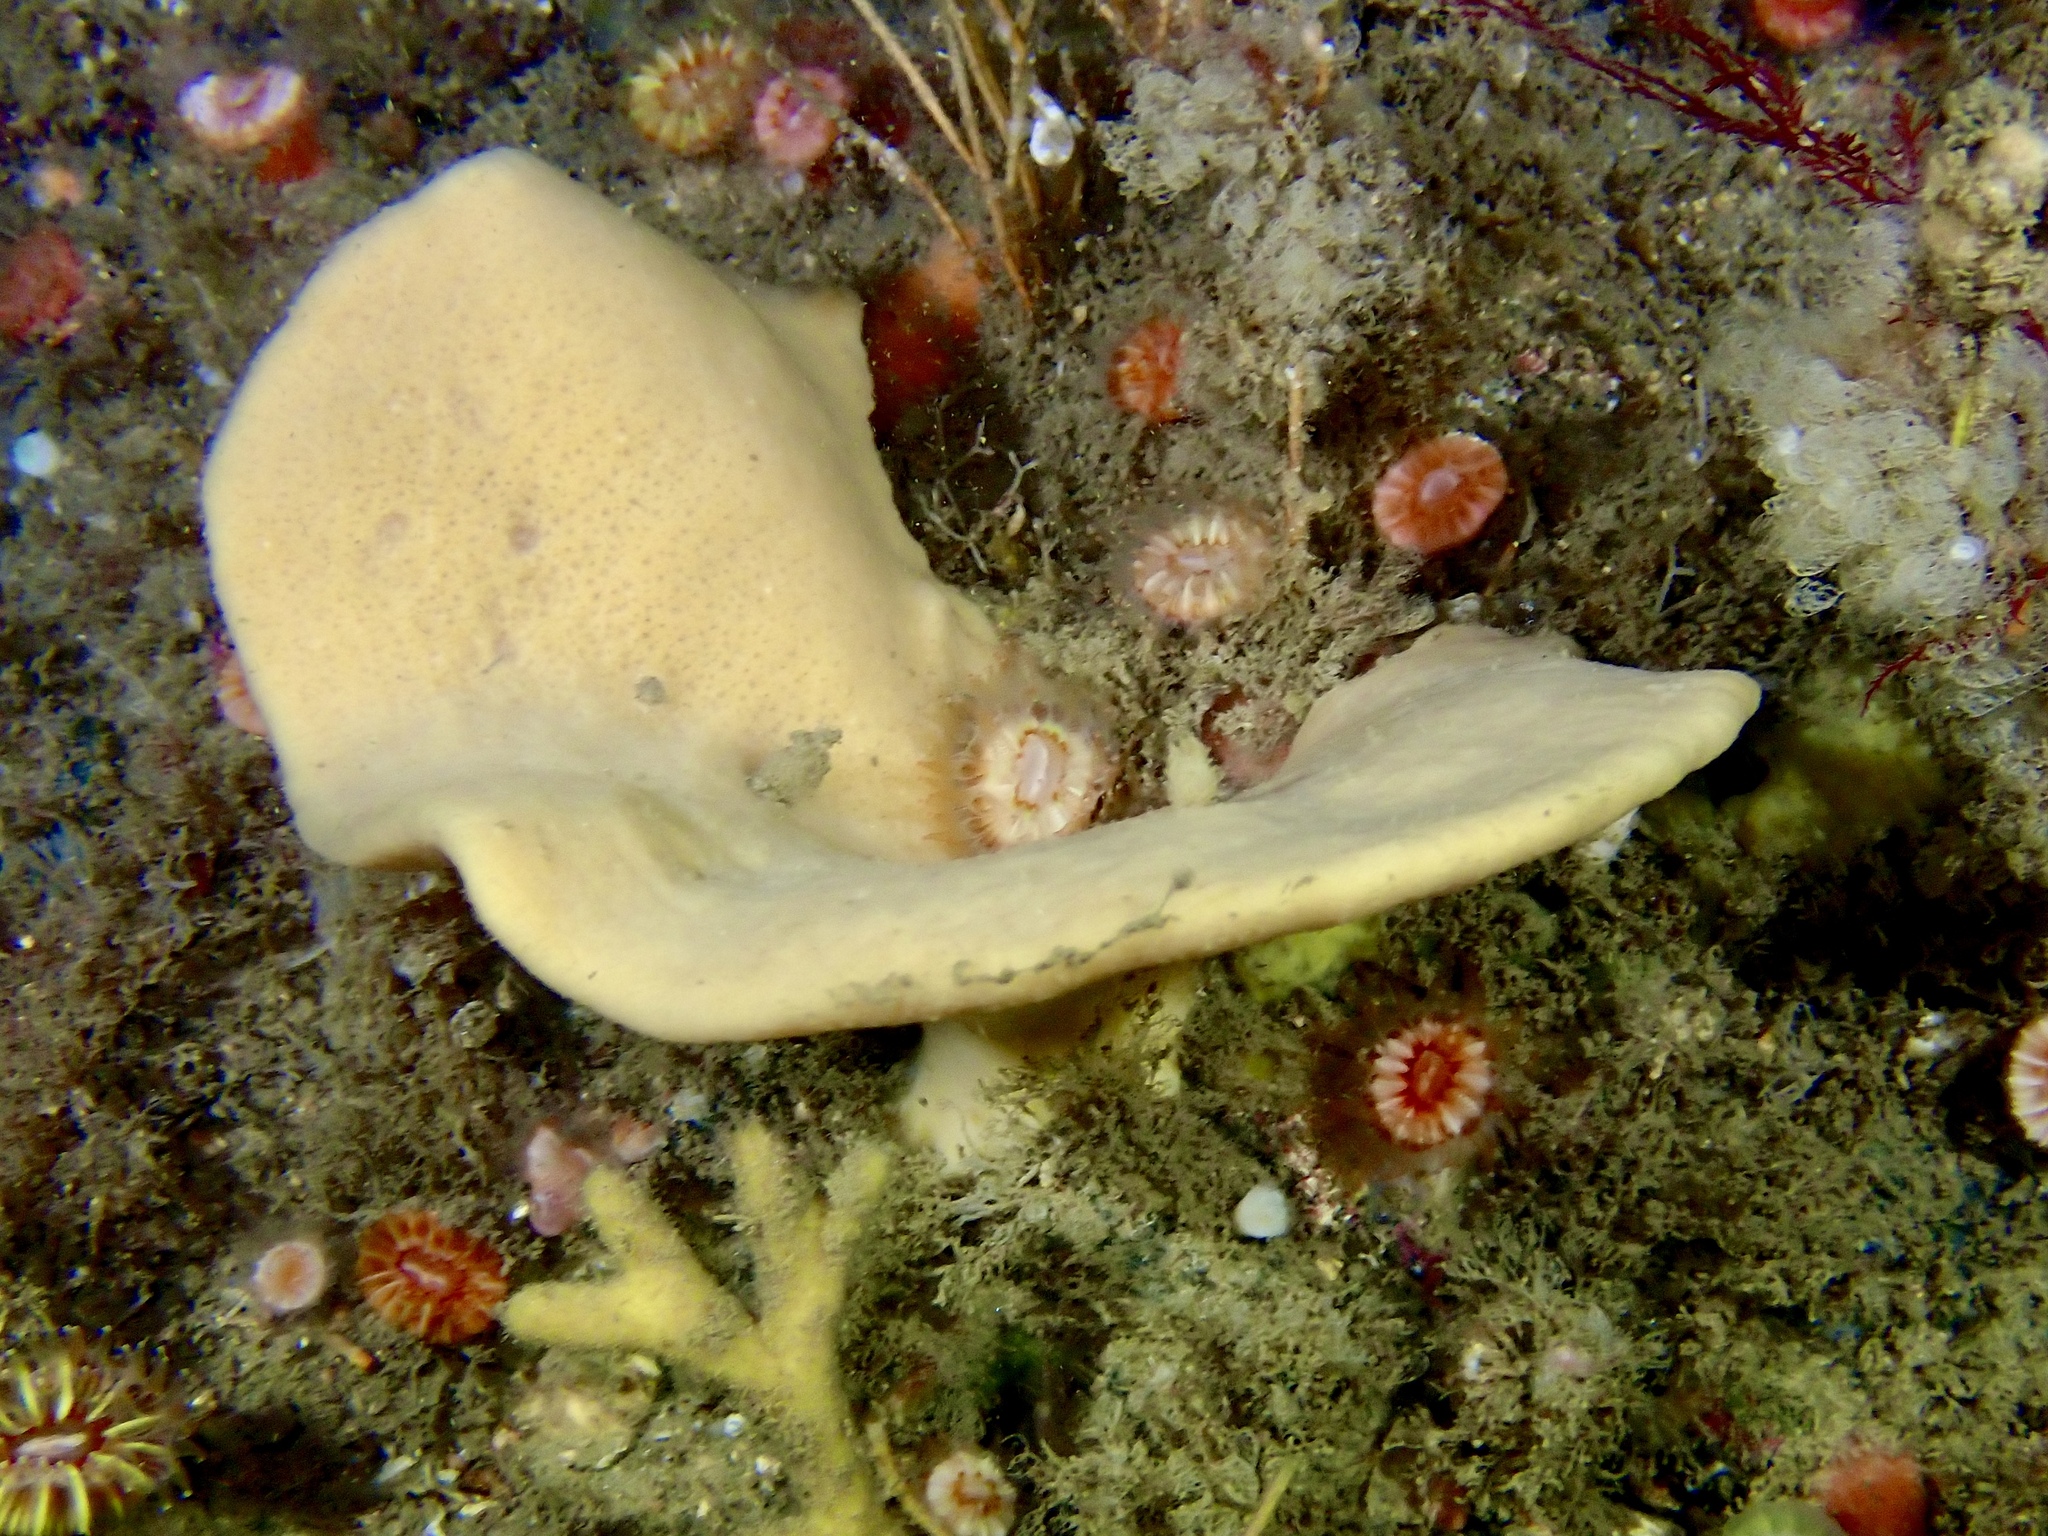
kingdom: Animalia
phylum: Porifera
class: Demospongiae
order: Axinellida
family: Axinellidae
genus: Axinella
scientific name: Axinella infundibuliformis
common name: North atlantic cup sponge
